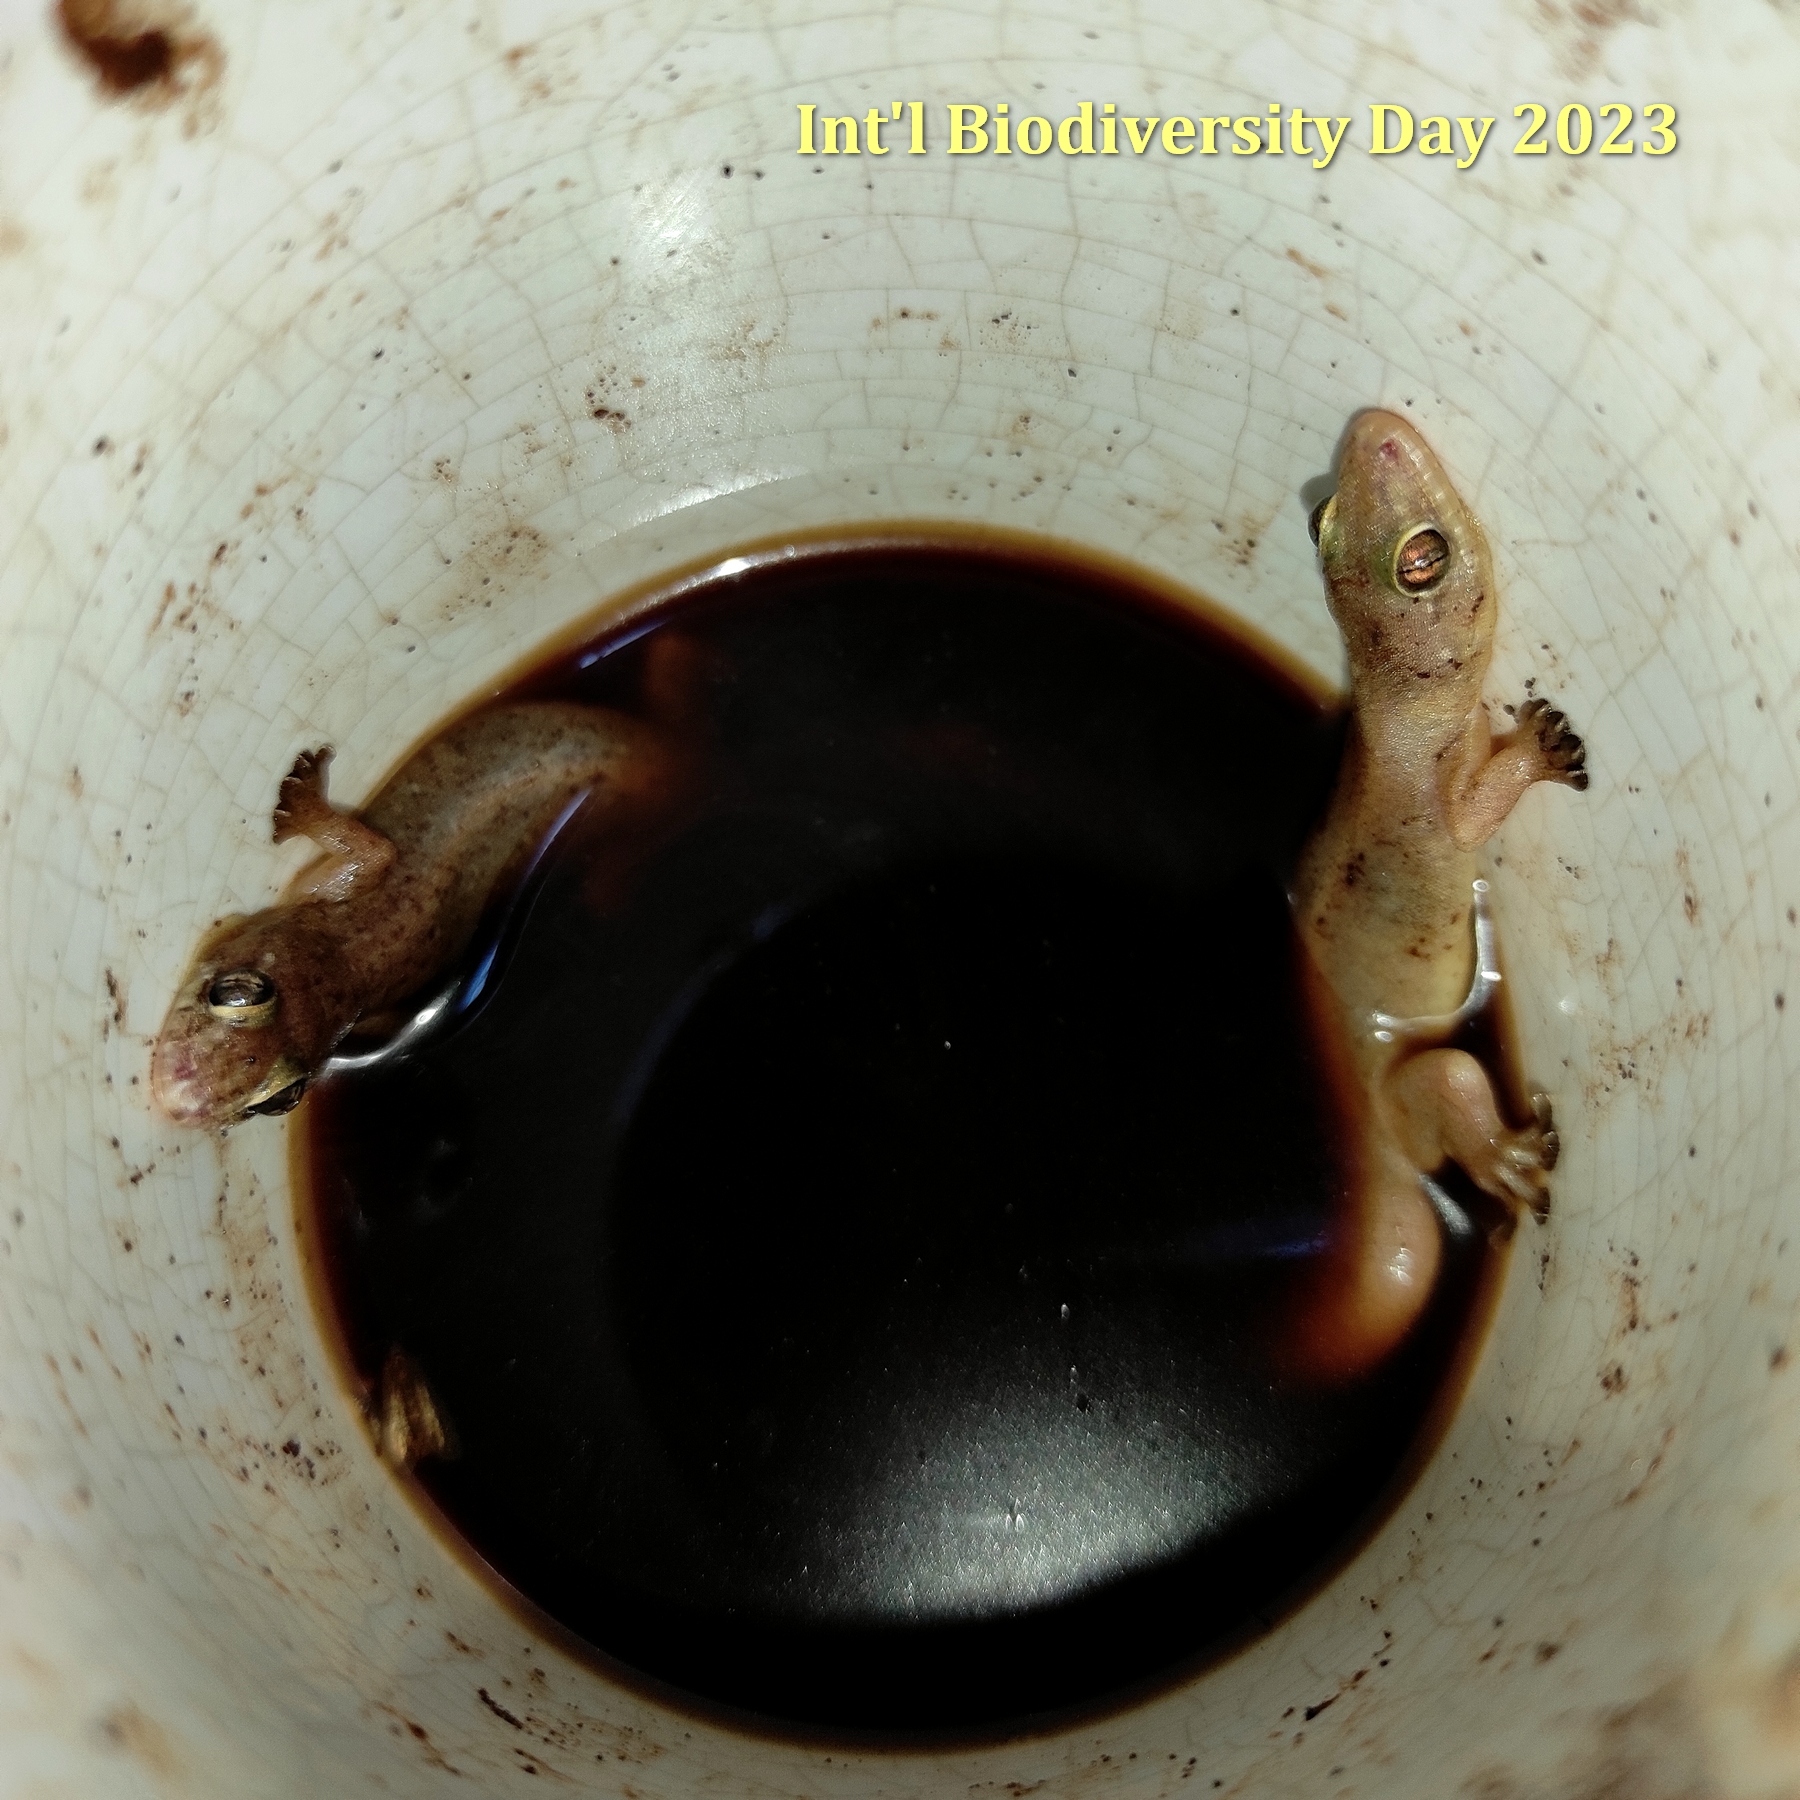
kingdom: Animalia
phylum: Chordata
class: Squamata
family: Gekkonidae
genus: Gehyra
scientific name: Gehyra mutilata
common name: Stump-toed gecko
